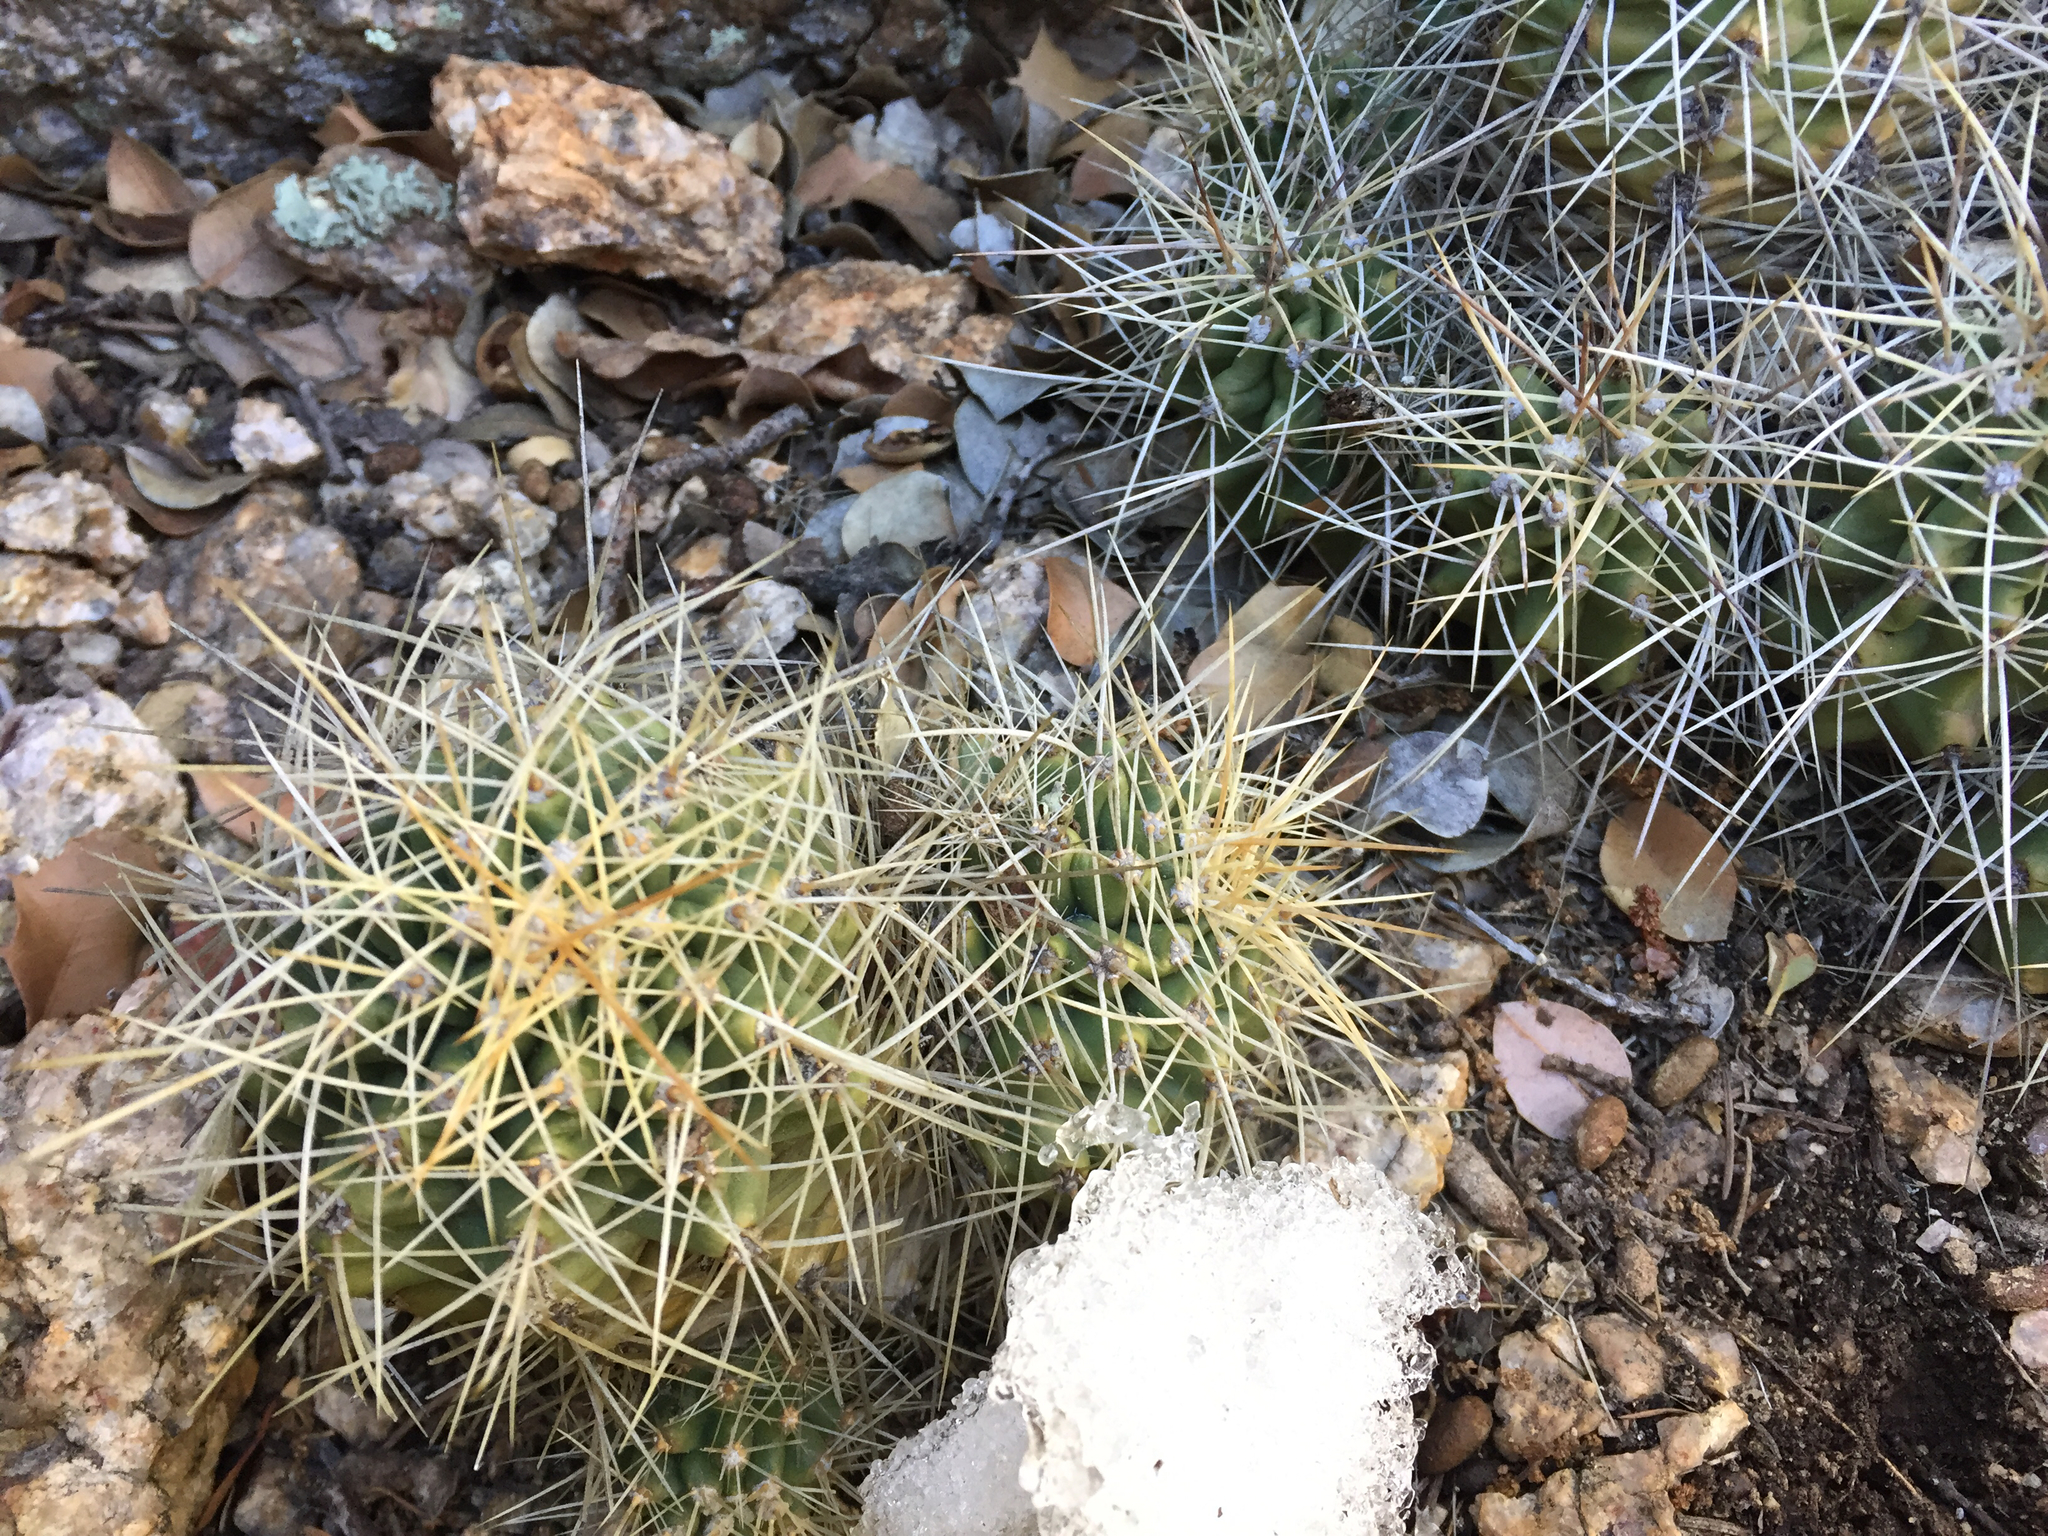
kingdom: Plantae
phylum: Tracheophyta
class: Magnoliopsida
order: Caryophyllales
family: Cactaceae
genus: Echinocereus
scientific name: Echinocereus bakeri
